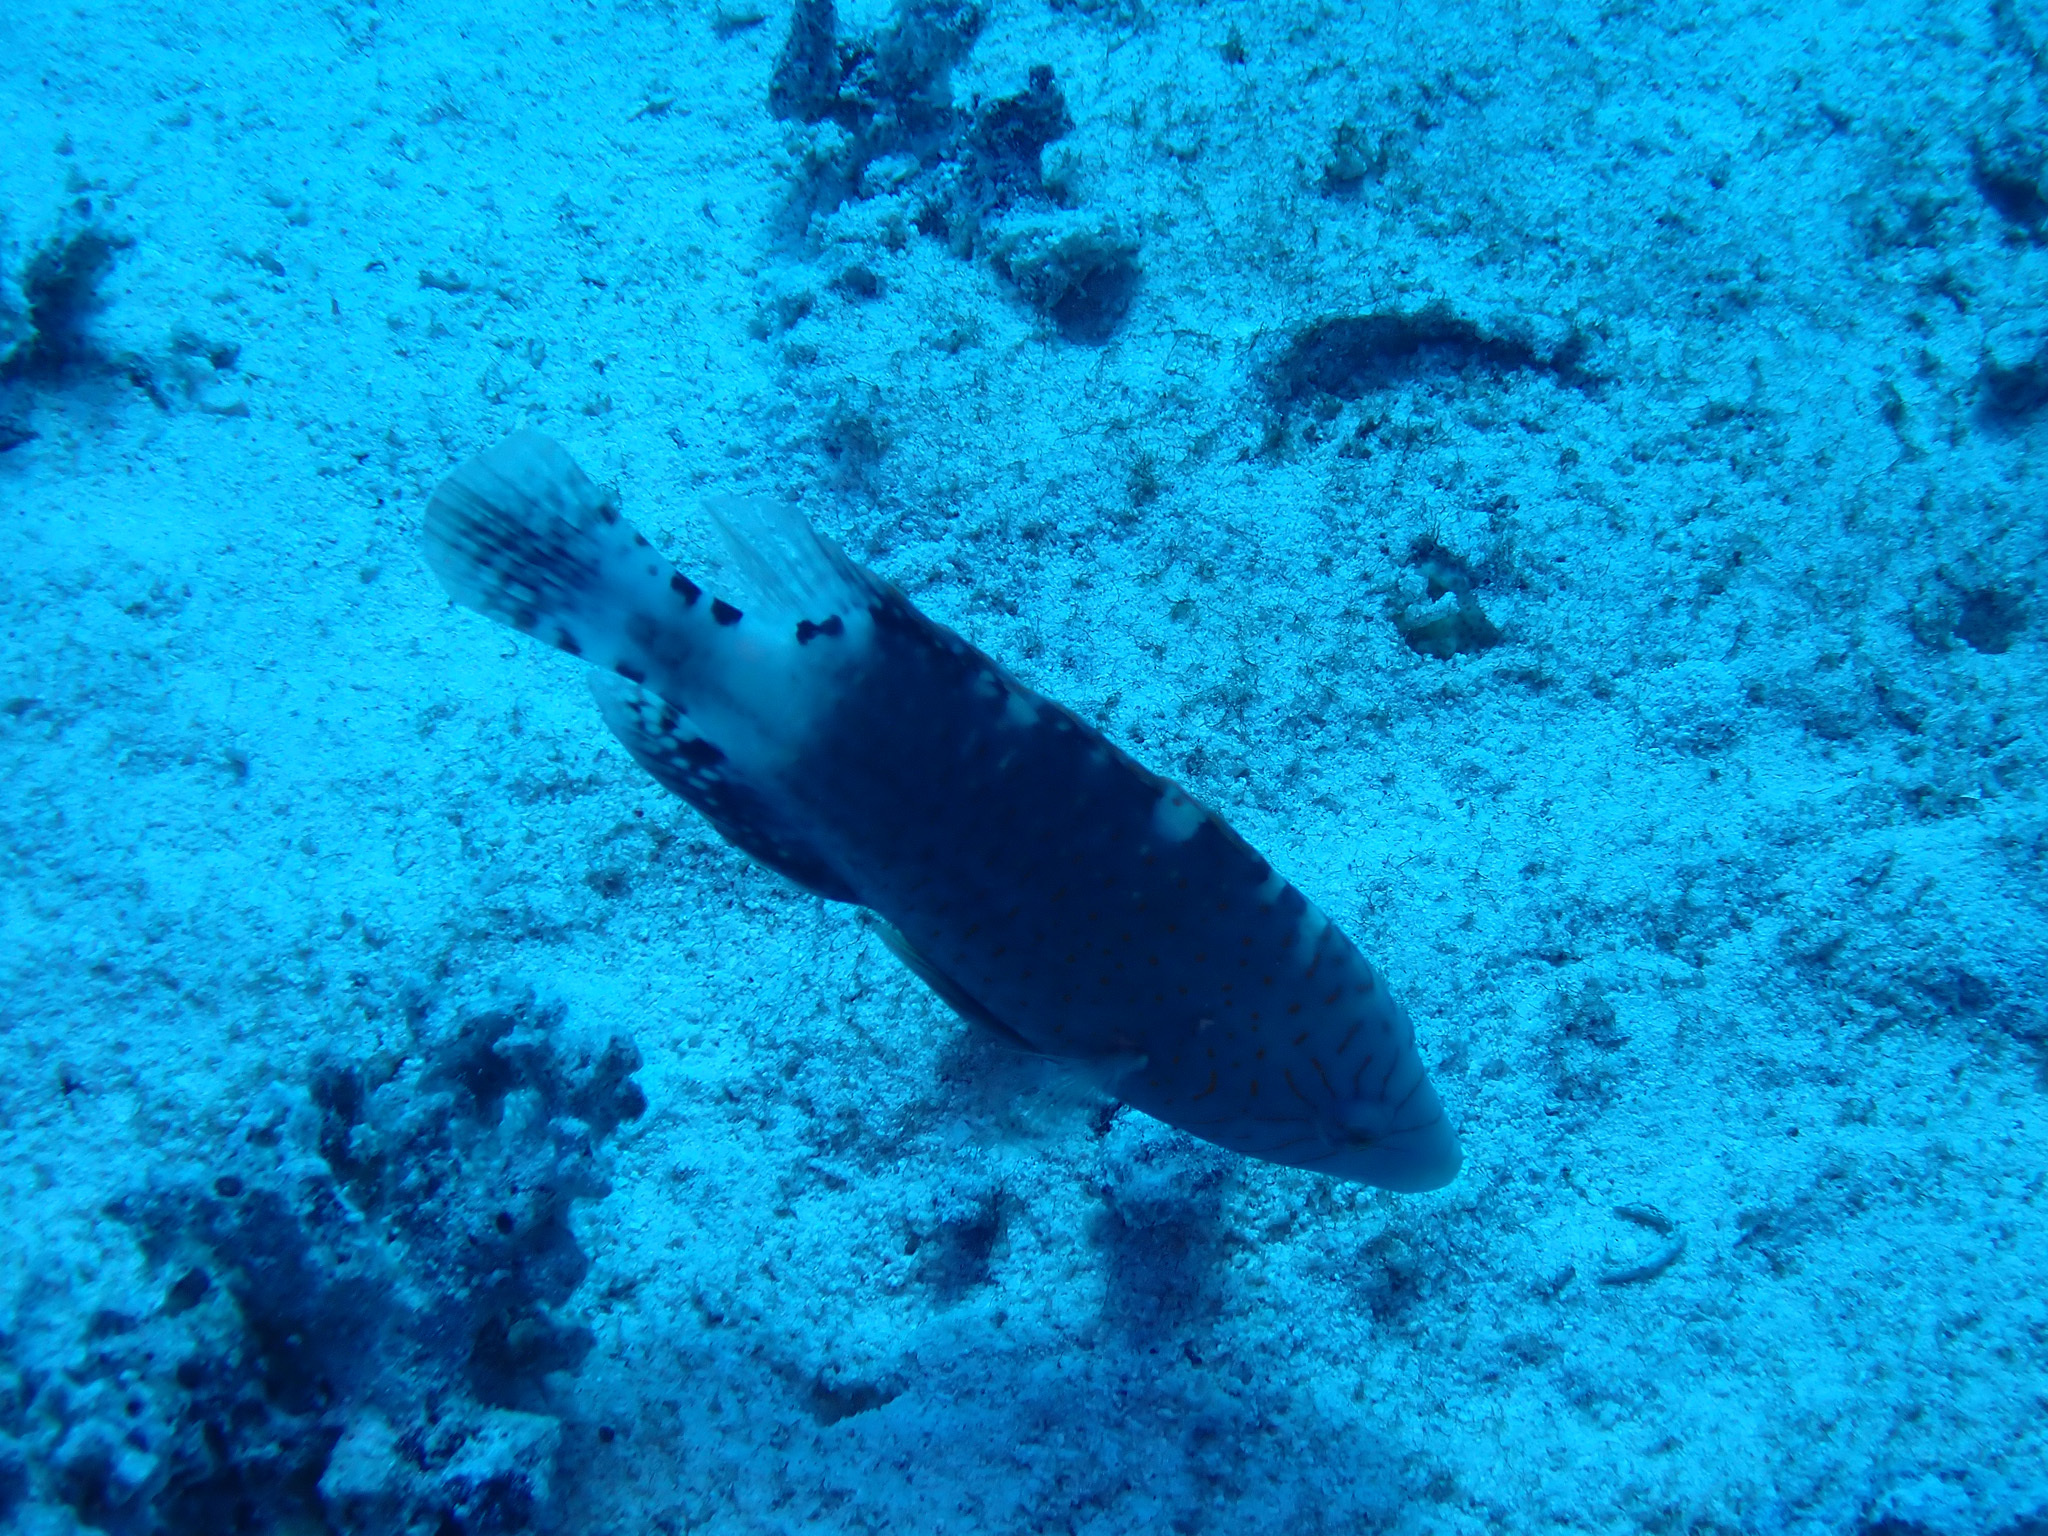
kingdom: Animalia
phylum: Chordata
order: Perciformes
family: Labridae
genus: Cheilinus
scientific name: Cheilinus abudjubbe
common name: Abudjubbe’s splendor wrasse
